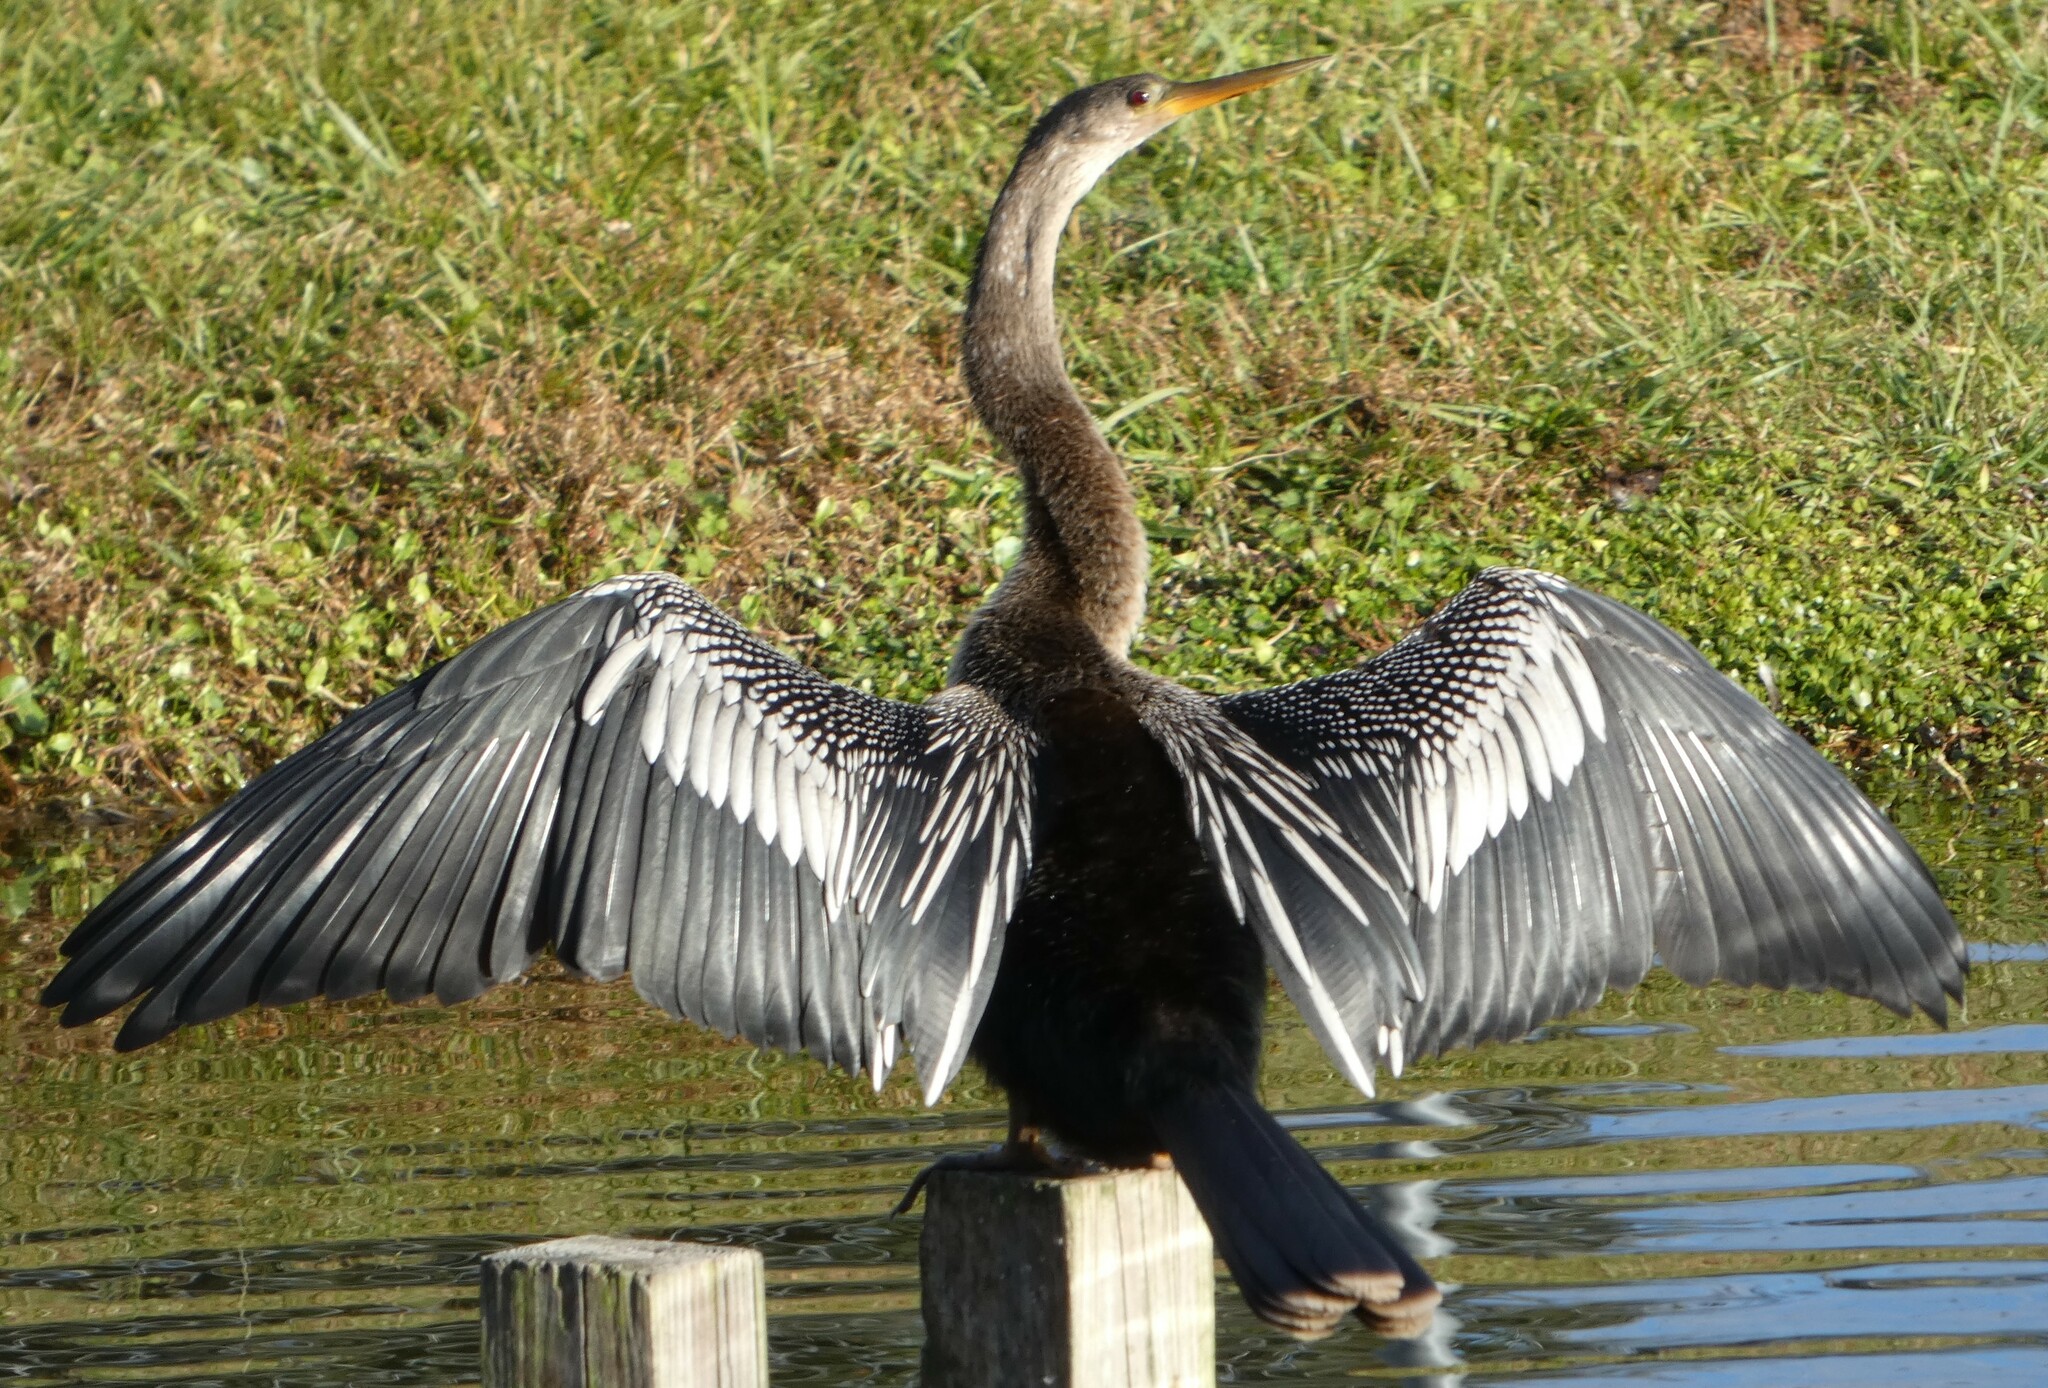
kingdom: Animalia
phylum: Chordata
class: Aves
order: Suliformes
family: Anhingidae
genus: Anhinga
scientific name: Anhinga anhinga
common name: Anhinga
